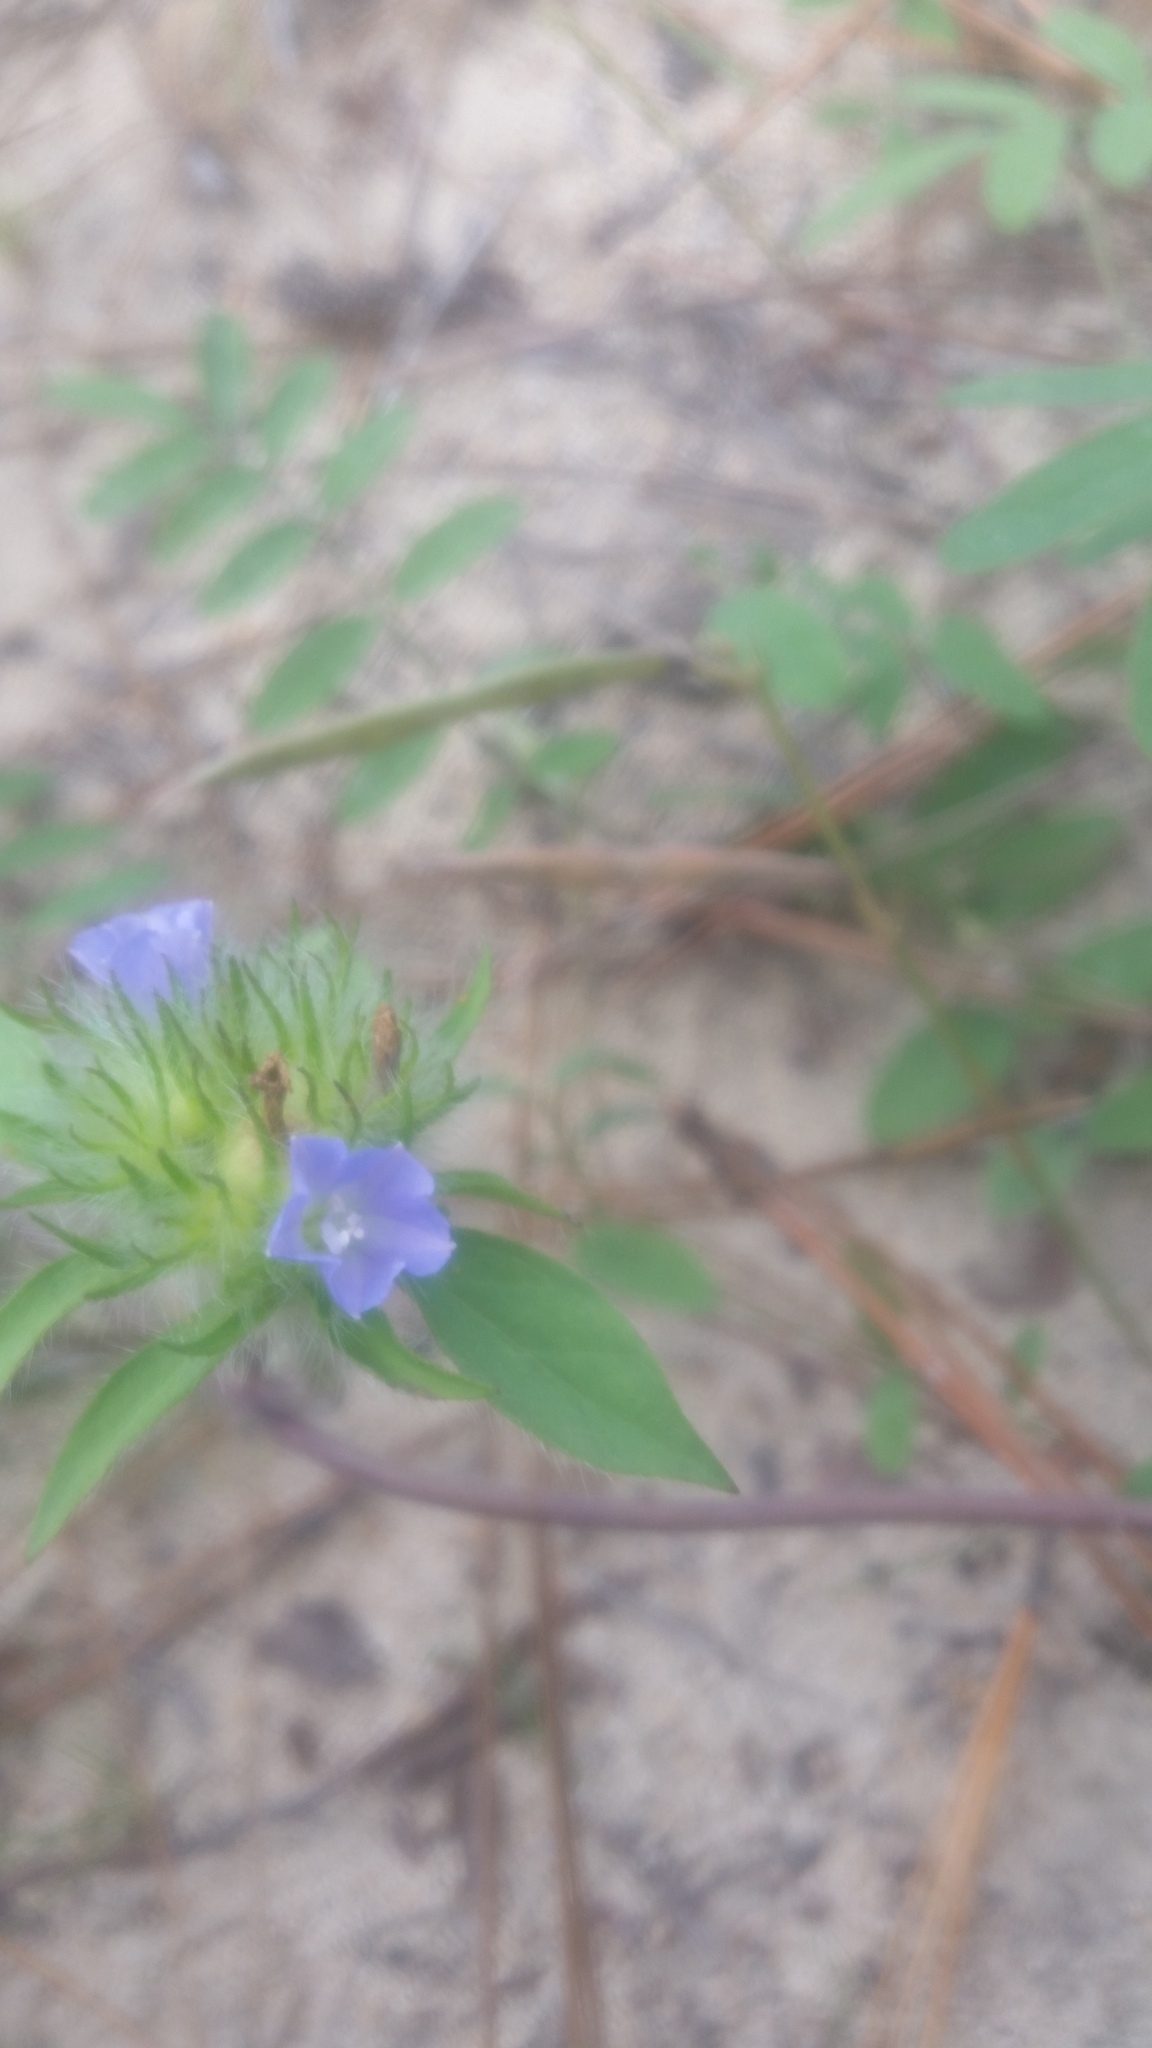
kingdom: Plantae
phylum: Tracheophyta
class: Magnoliopsida
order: Solanales
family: Convolvulaceae
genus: Jacquemontia
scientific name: Jacquemontia tamnifolia
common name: Hairy clustervine
